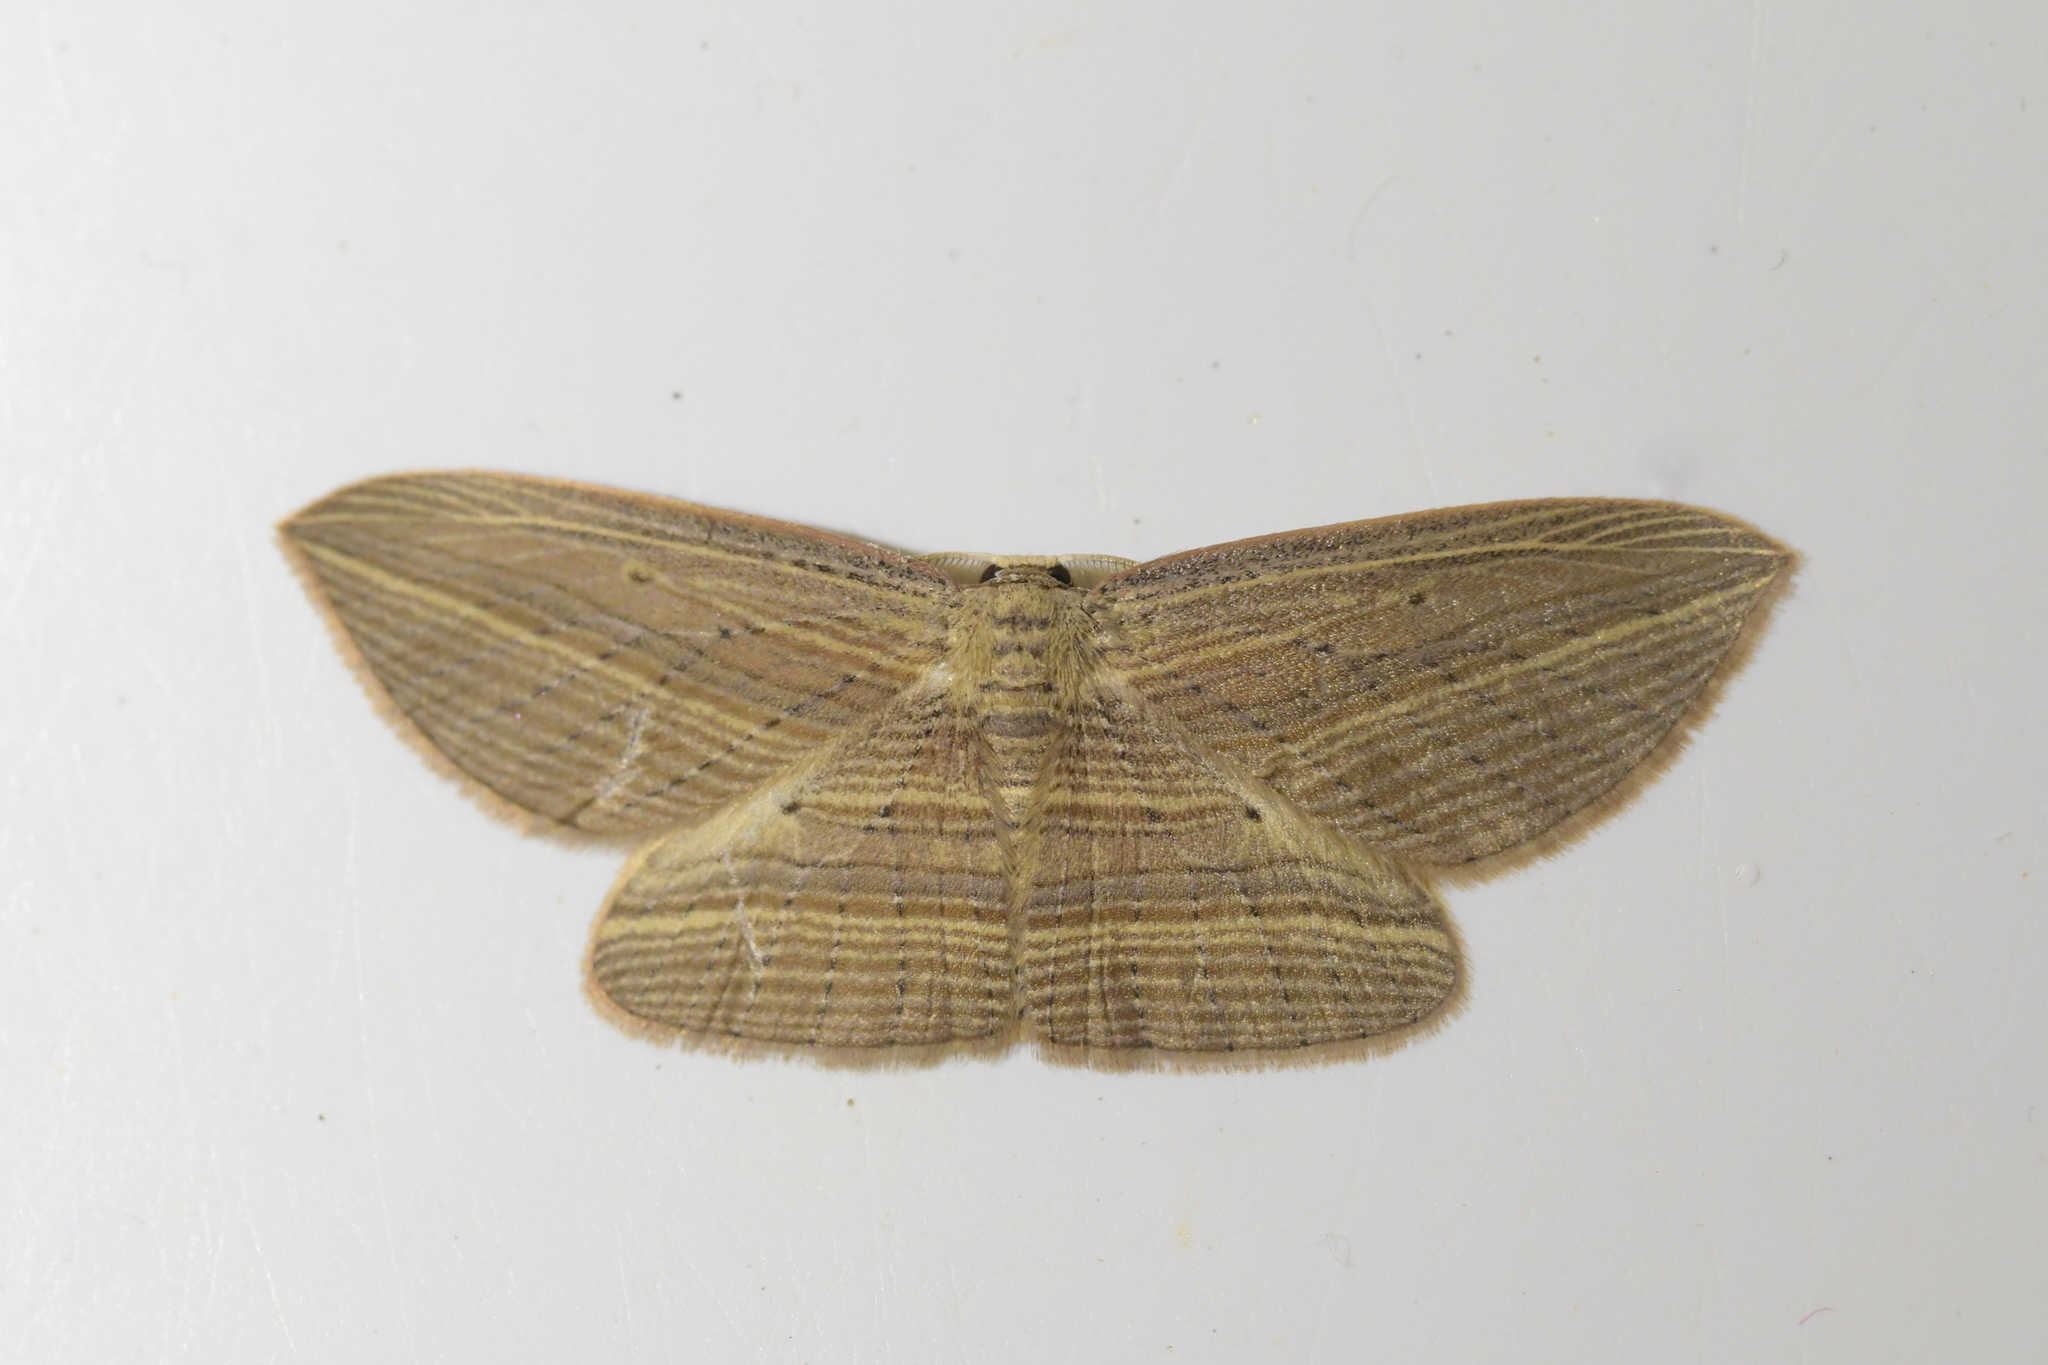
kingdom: Animalia
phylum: Arthropoda
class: Insecta
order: Lepidoptera
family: Geometridae
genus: Epiphryne
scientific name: Epiphryne verriculata
